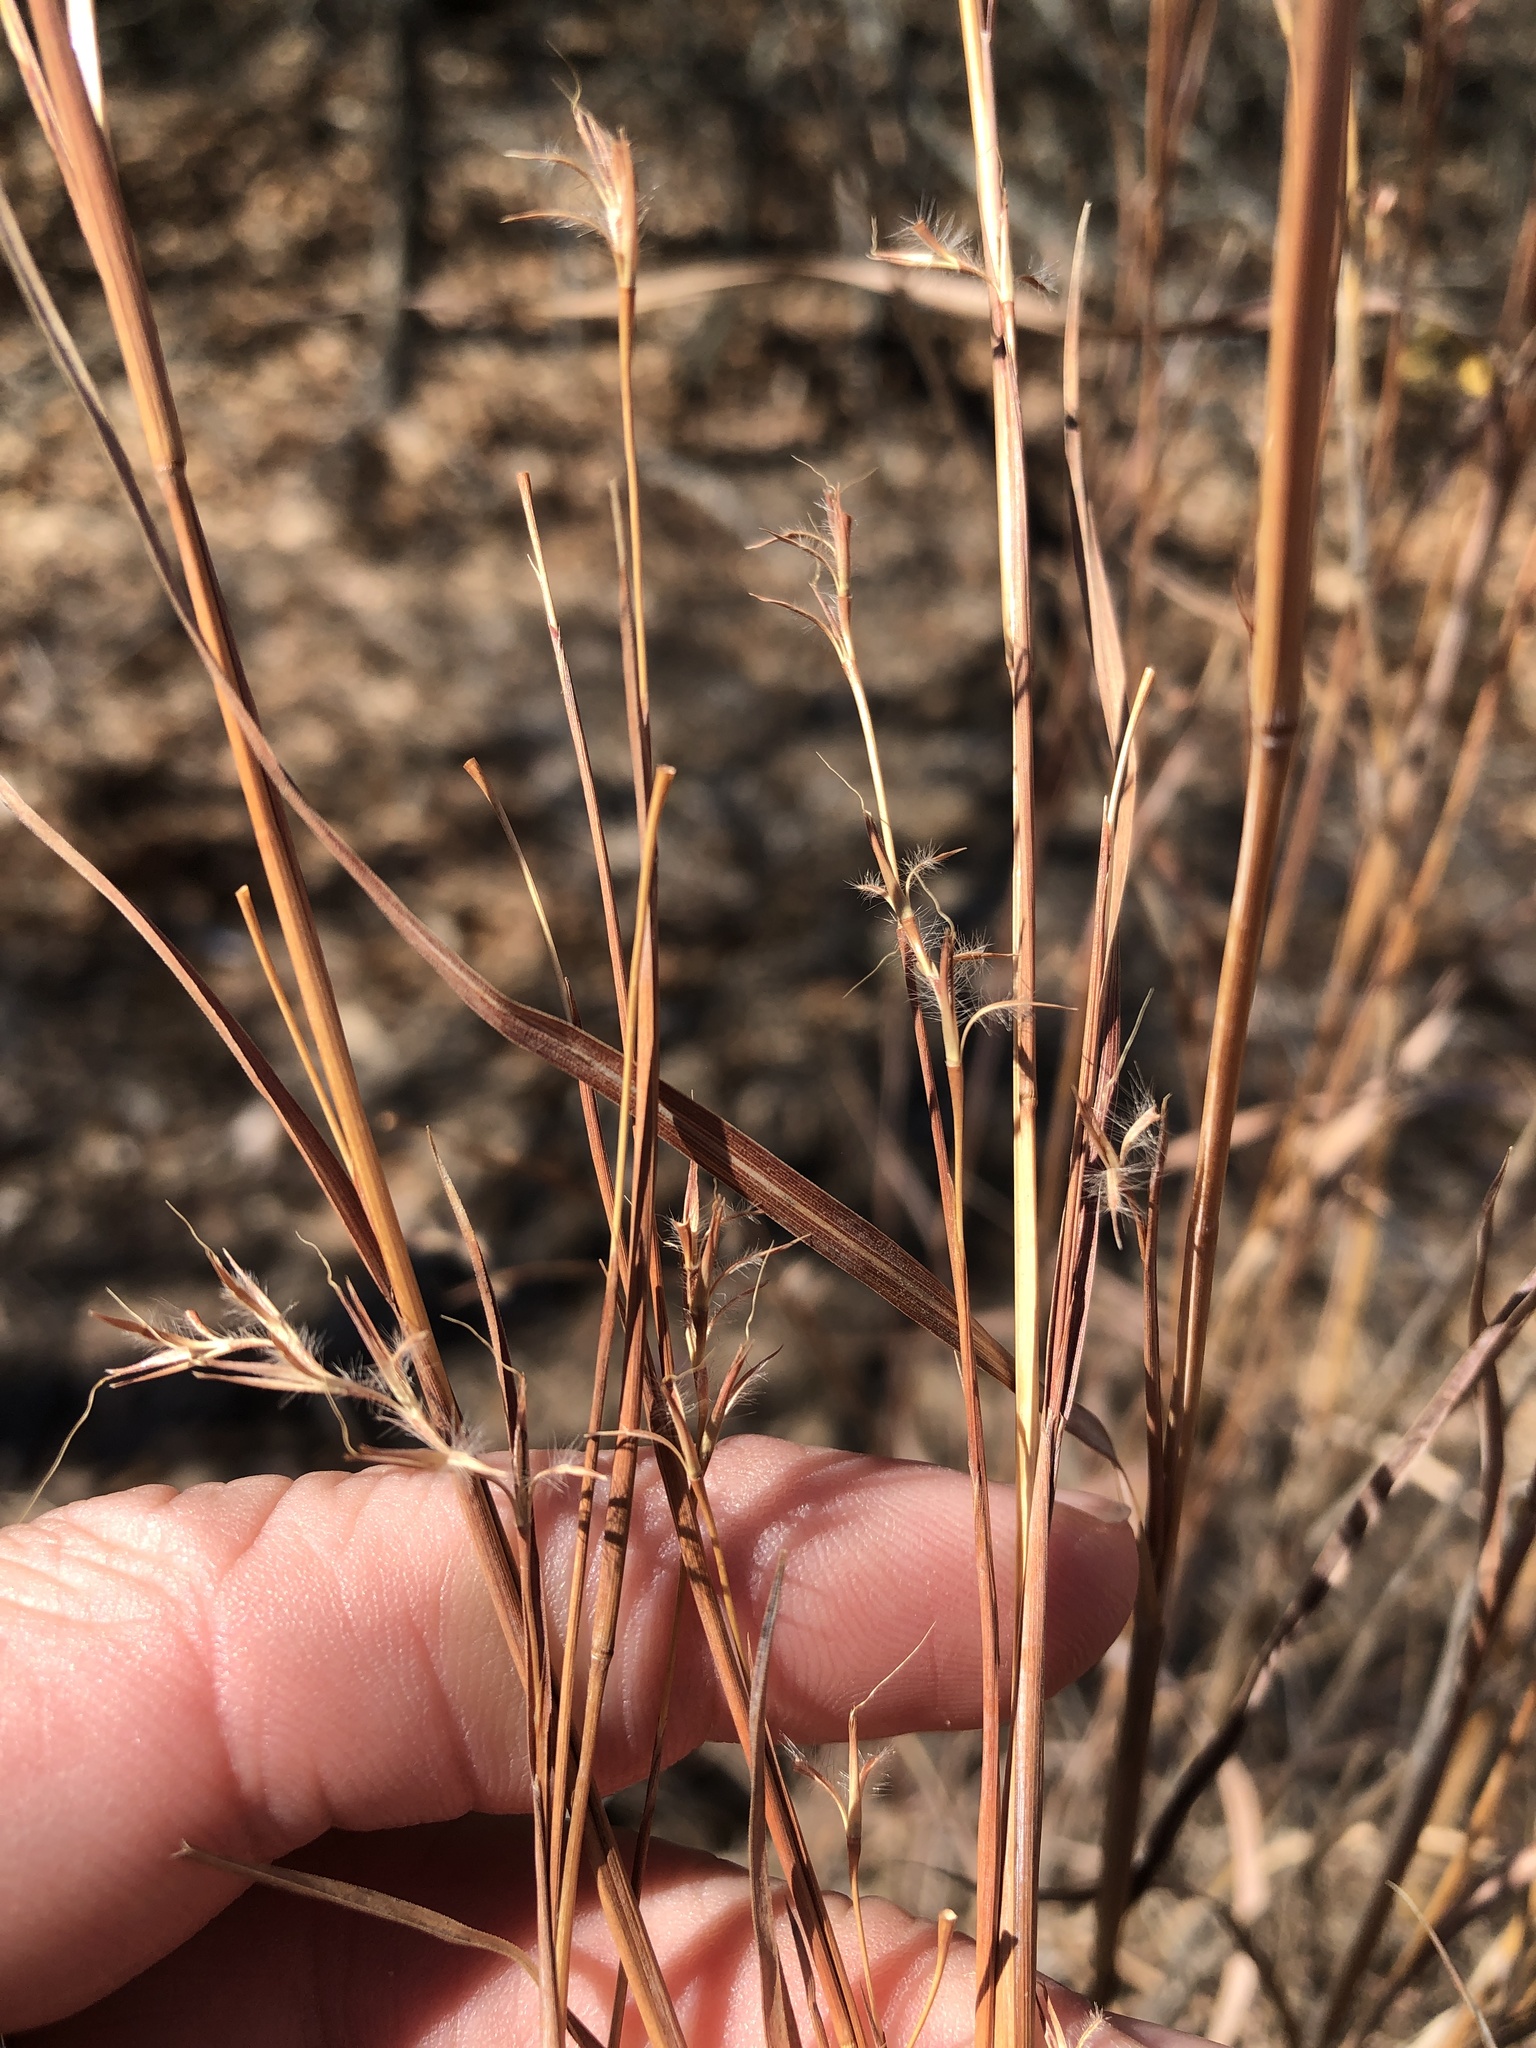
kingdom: Plantae
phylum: Tracheophyta
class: Liliopsida
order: Poales
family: Poaceae
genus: Schizachyrium
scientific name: Schizachyrium scoparium
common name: Little bluestem
